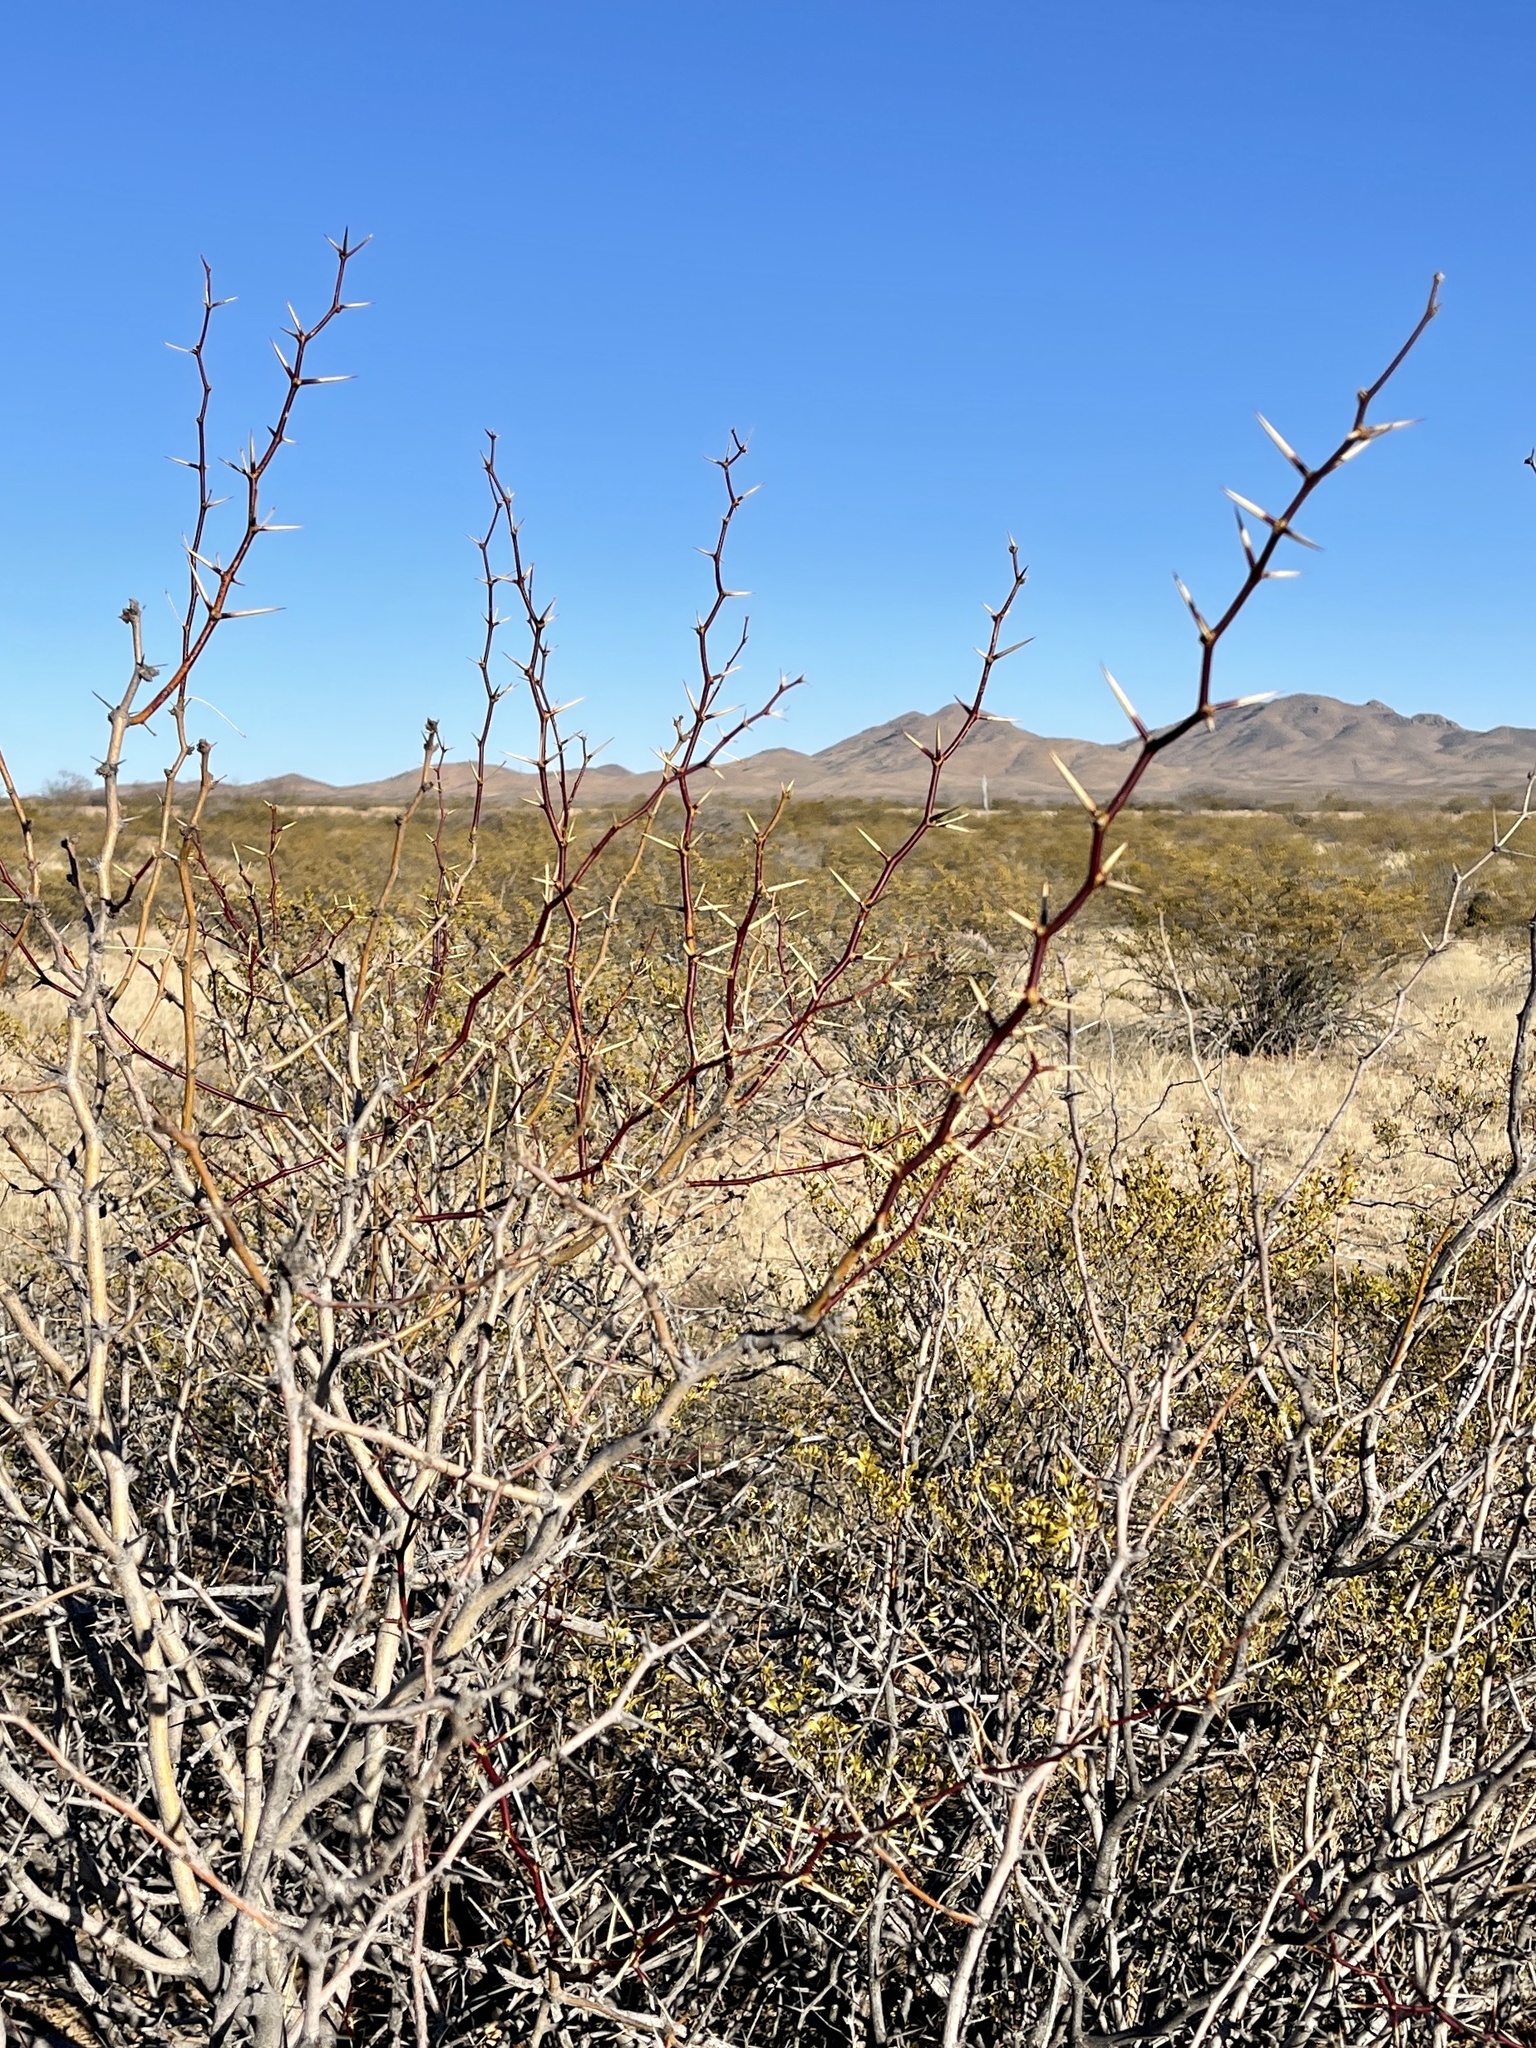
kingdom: Plantae
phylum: Tracheophyta
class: Magnoliopsida
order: Fabales
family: Fabaceae
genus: Prosopis
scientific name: Prosopis glandulosa
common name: Honey mesquite
